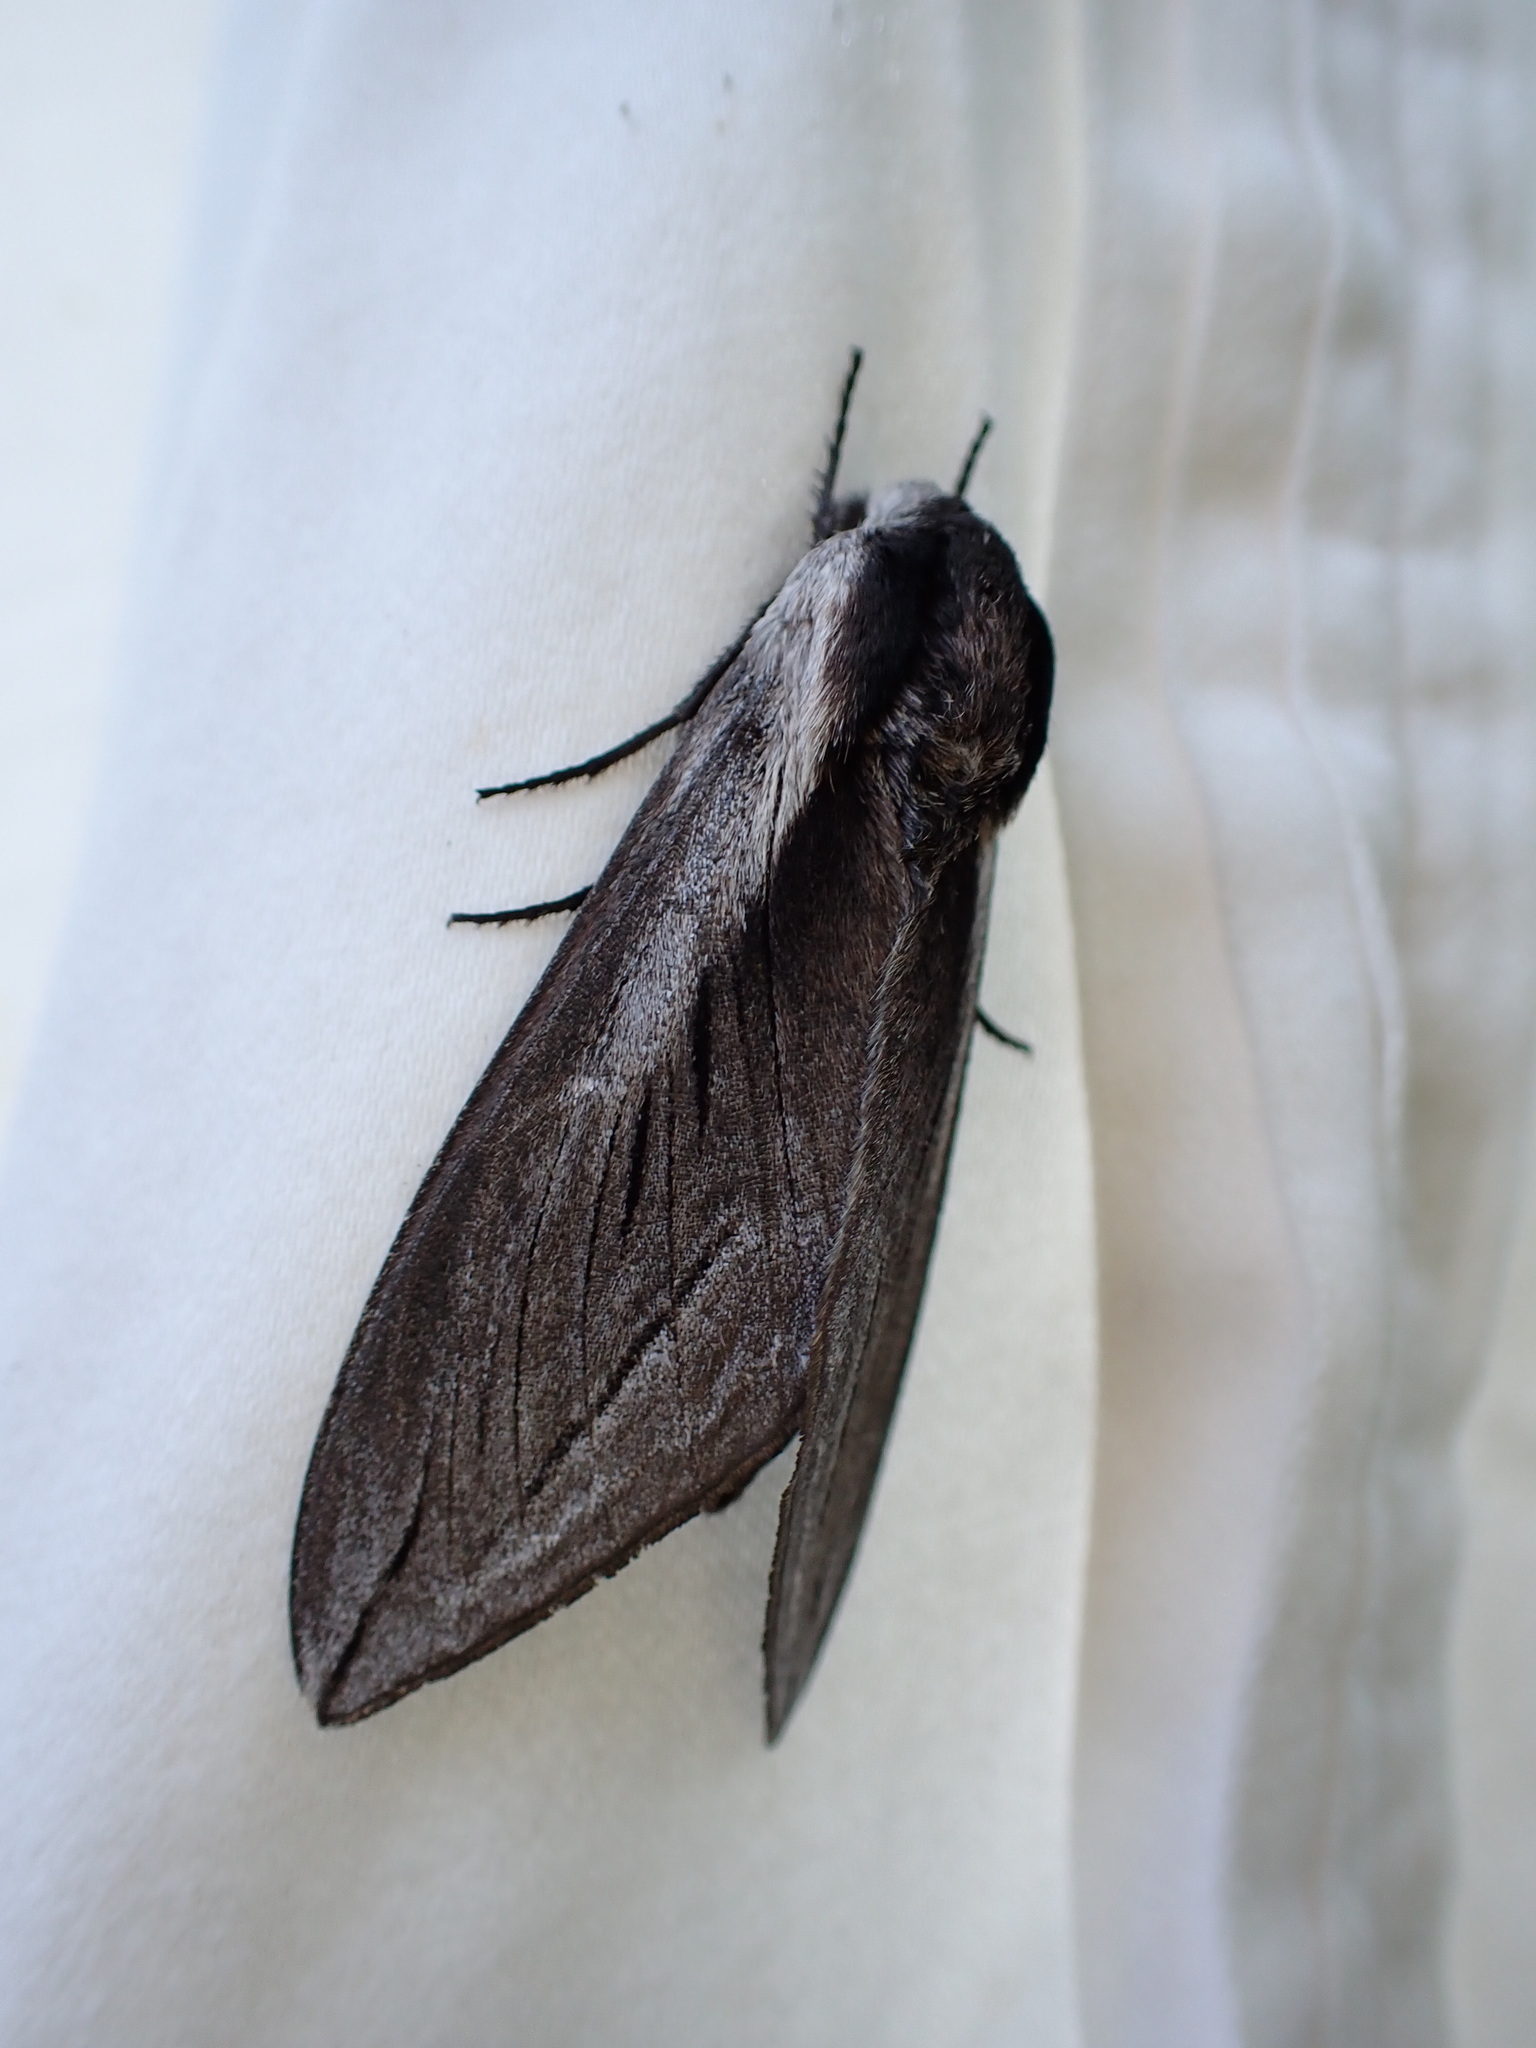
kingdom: Animalia
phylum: Arthropoda
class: Insecta
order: Lepidoptera
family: Sphingidae
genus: Sphinx
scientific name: Sphinx vashti
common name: Snowberry sphinx
